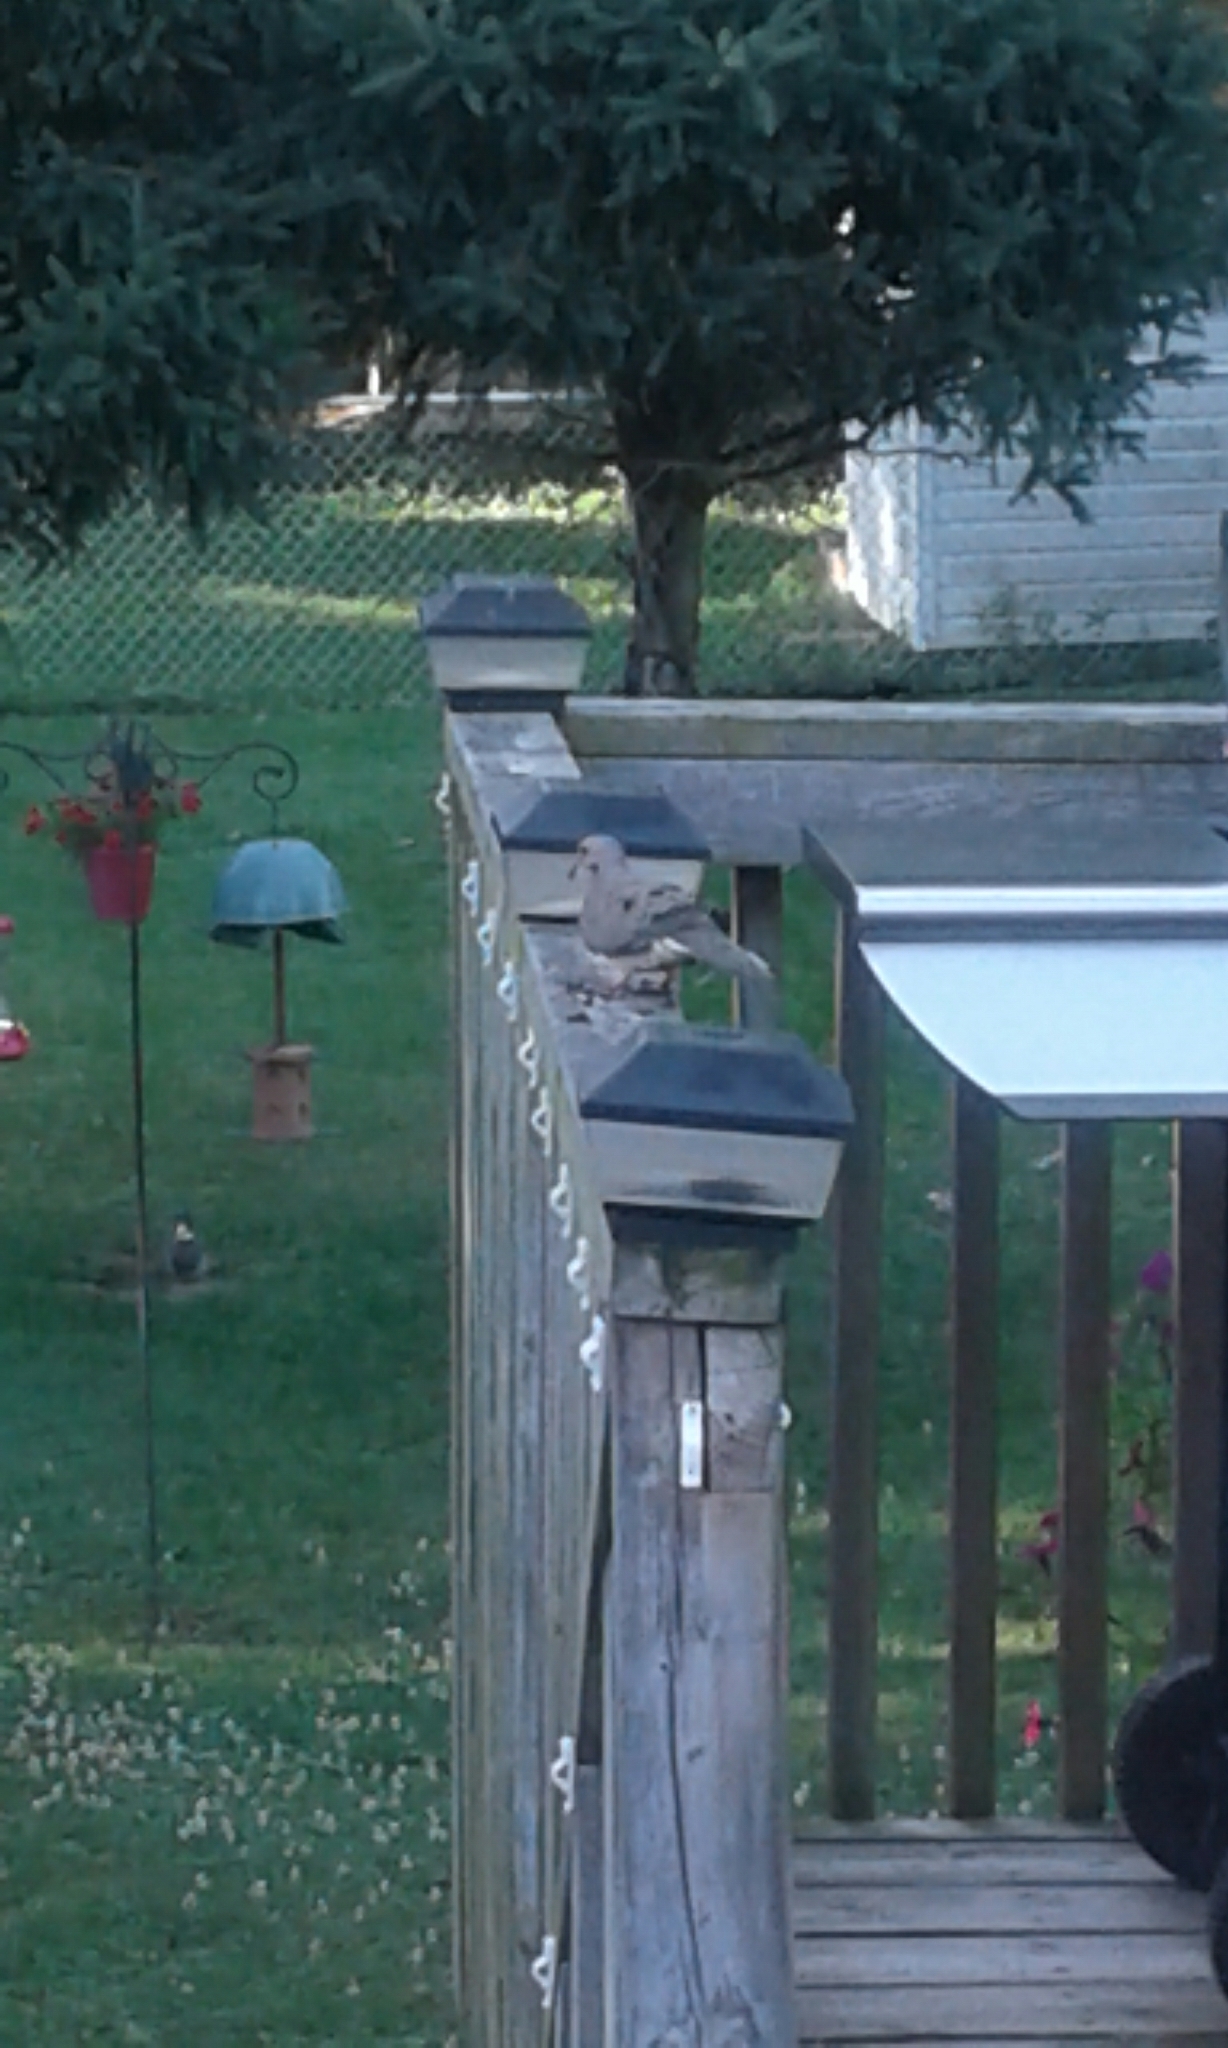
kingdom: Animalia
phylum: Chordata
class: Aves
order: Columbiformes
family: Columbidae
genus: Zenaida
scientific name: Zenaida macroura
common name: Mourning dove
